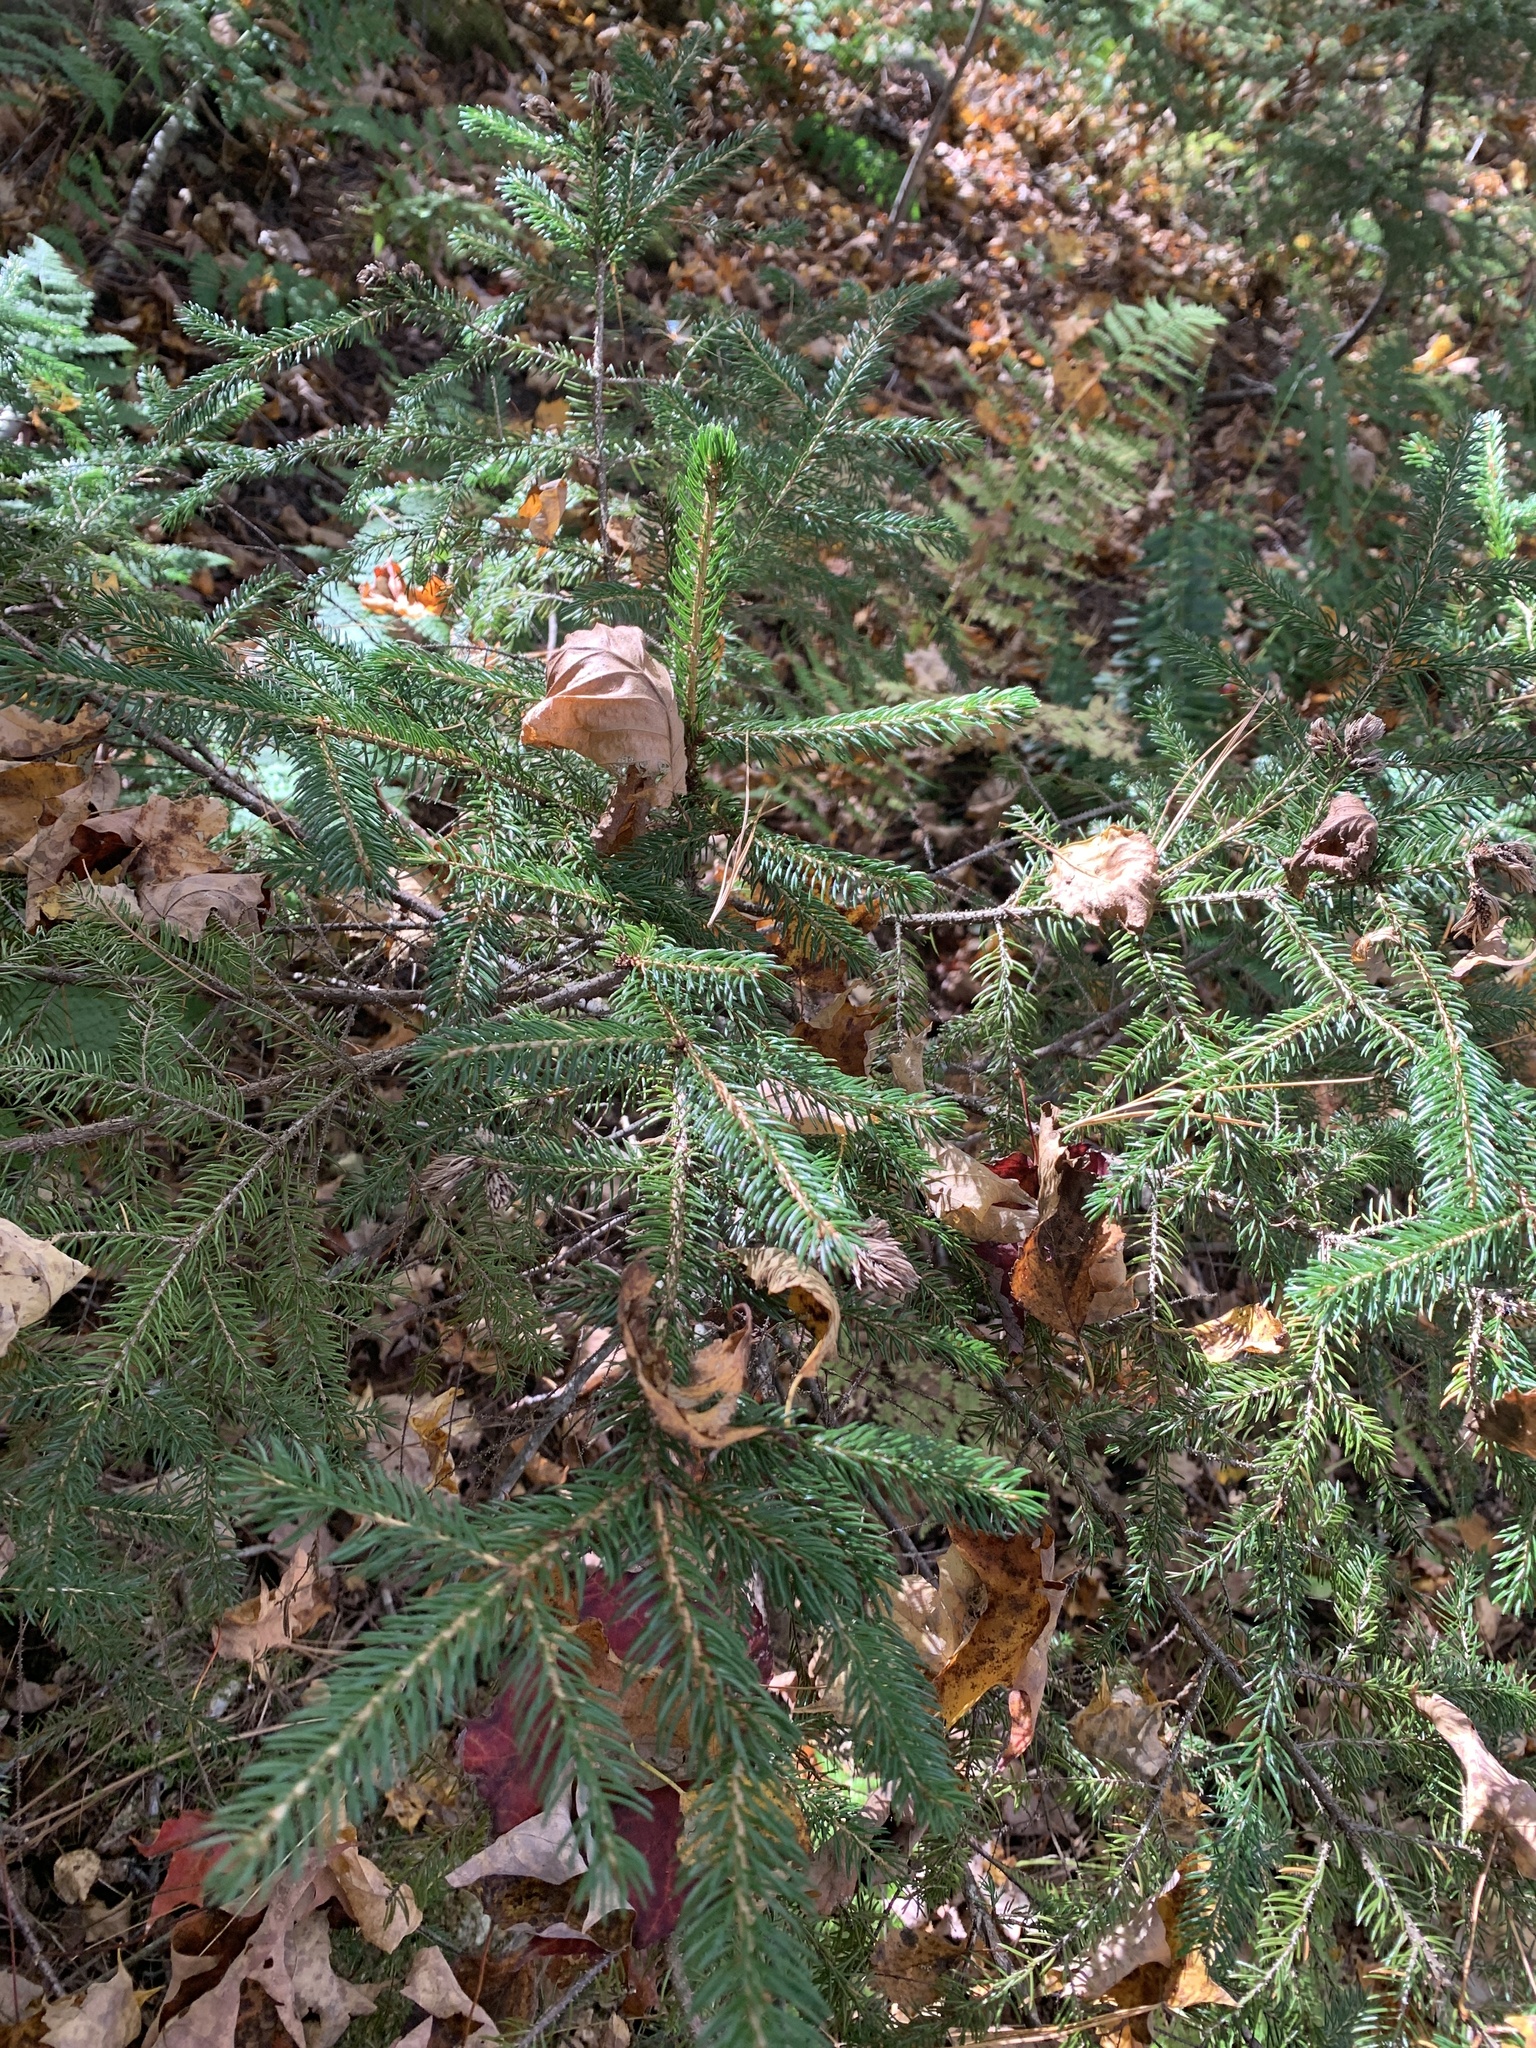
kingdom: Plantae
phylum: Tracheophyta
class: Pinopsida
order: Pinales
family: Pinaceae
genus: Picea
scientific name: Picea rubens
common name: Red spruce
